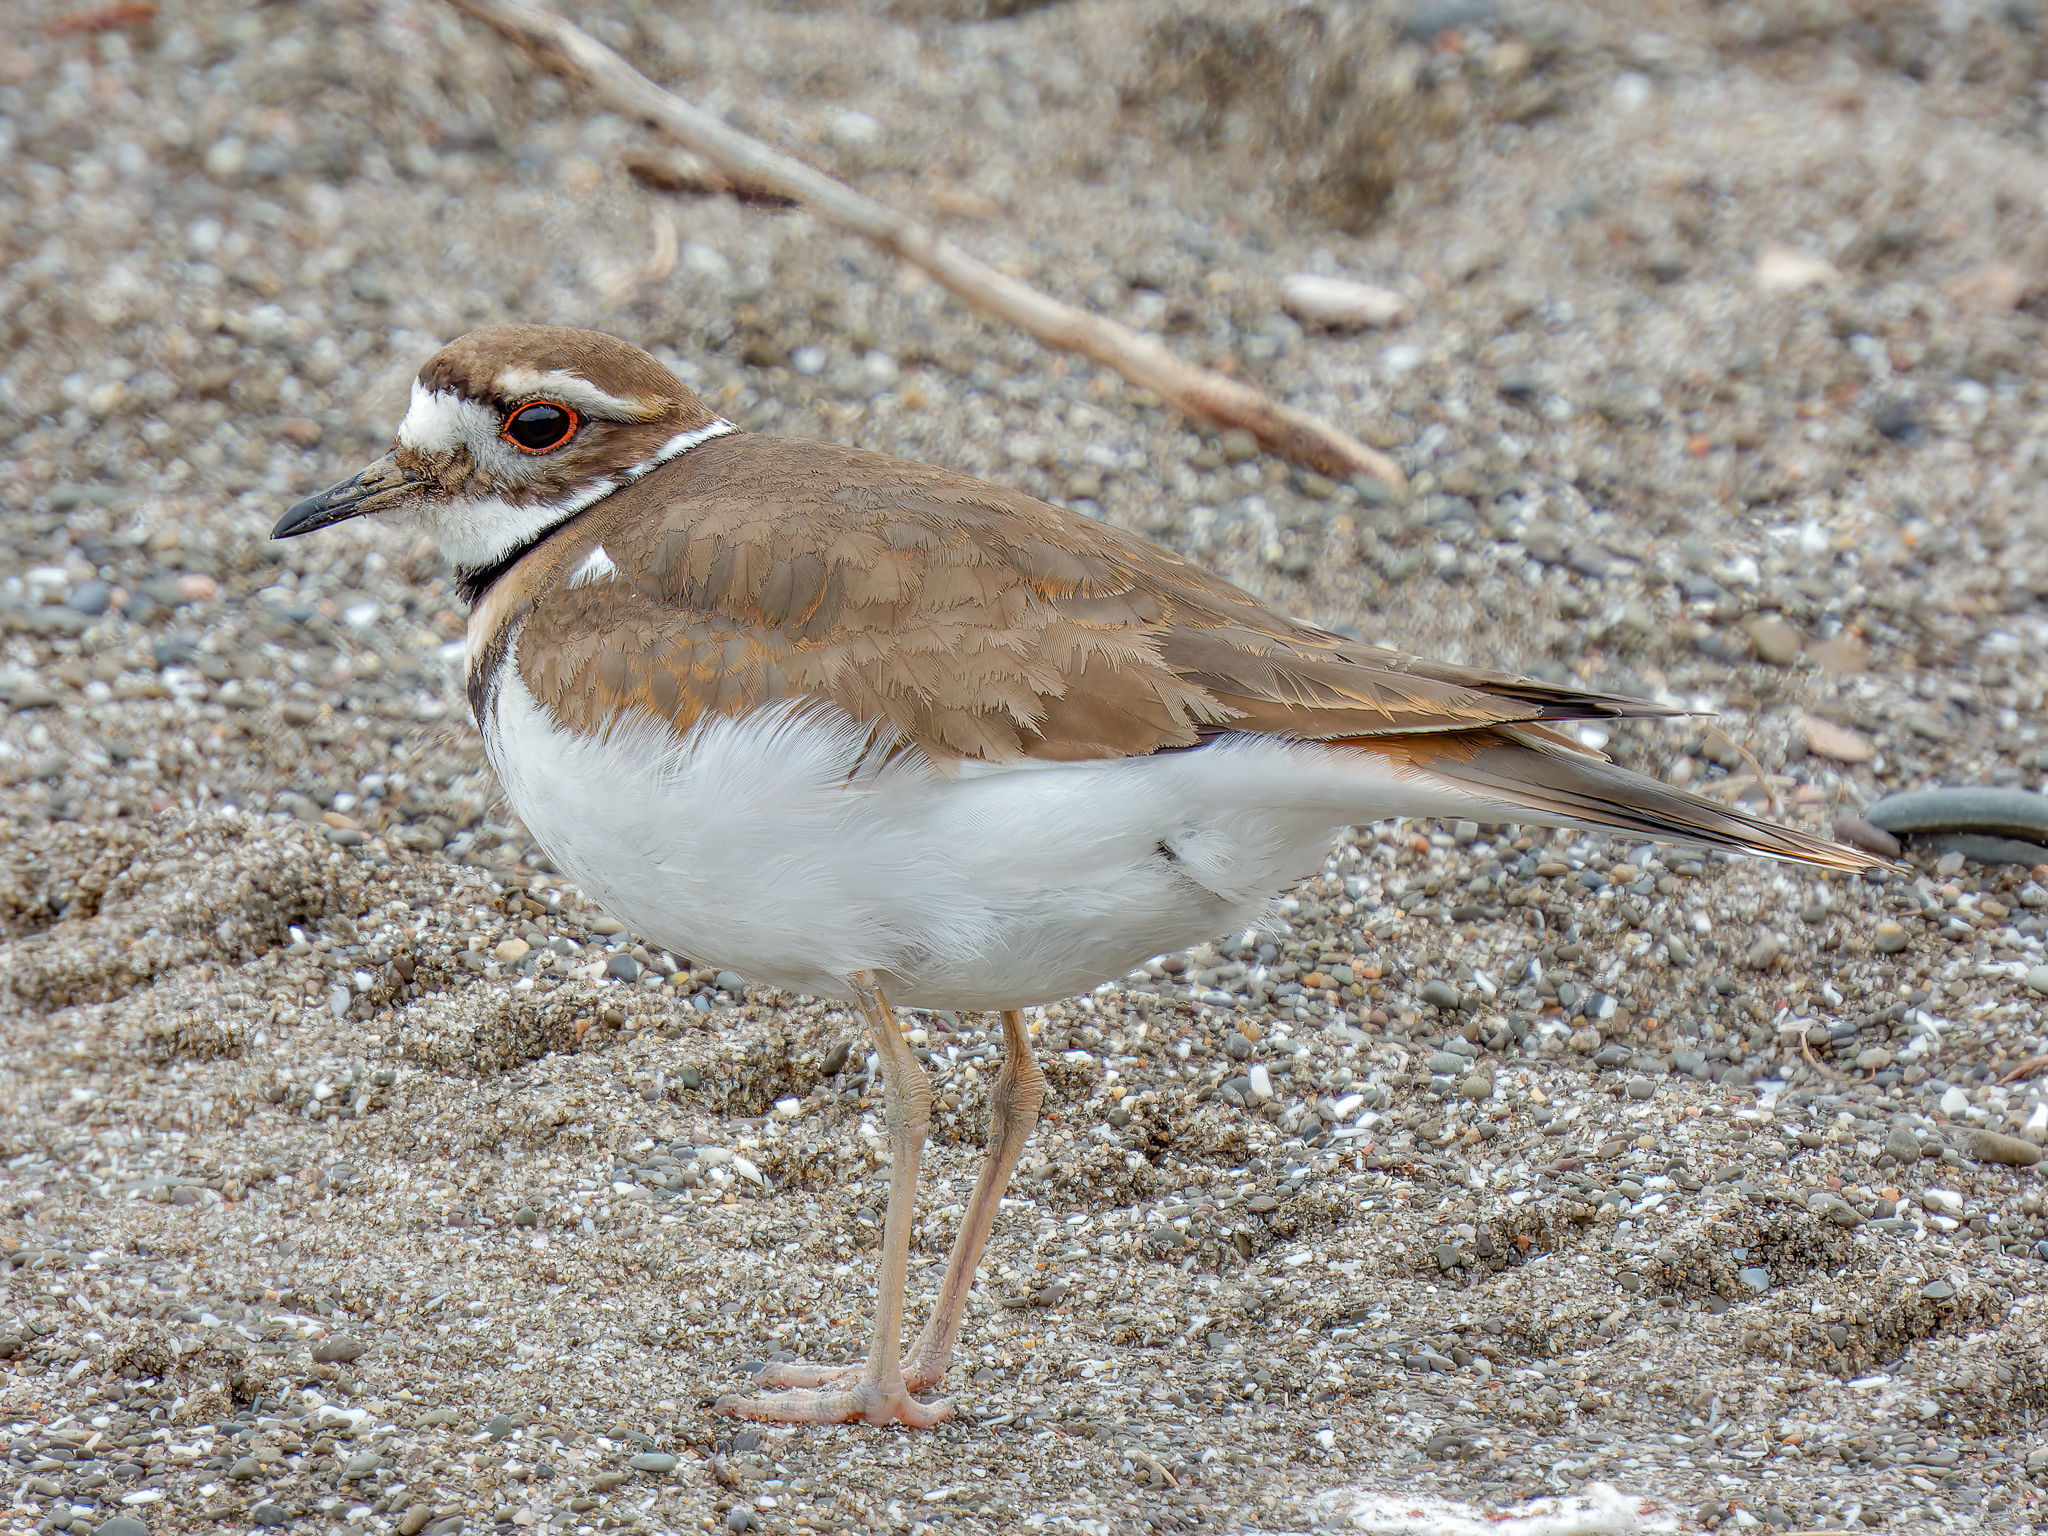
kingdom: Animalia
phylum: Chordata
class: Aves
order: Charadriiformes
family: Charadriidae
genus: Charadrius
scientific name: Charadrius vociferus
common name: Killdeer
